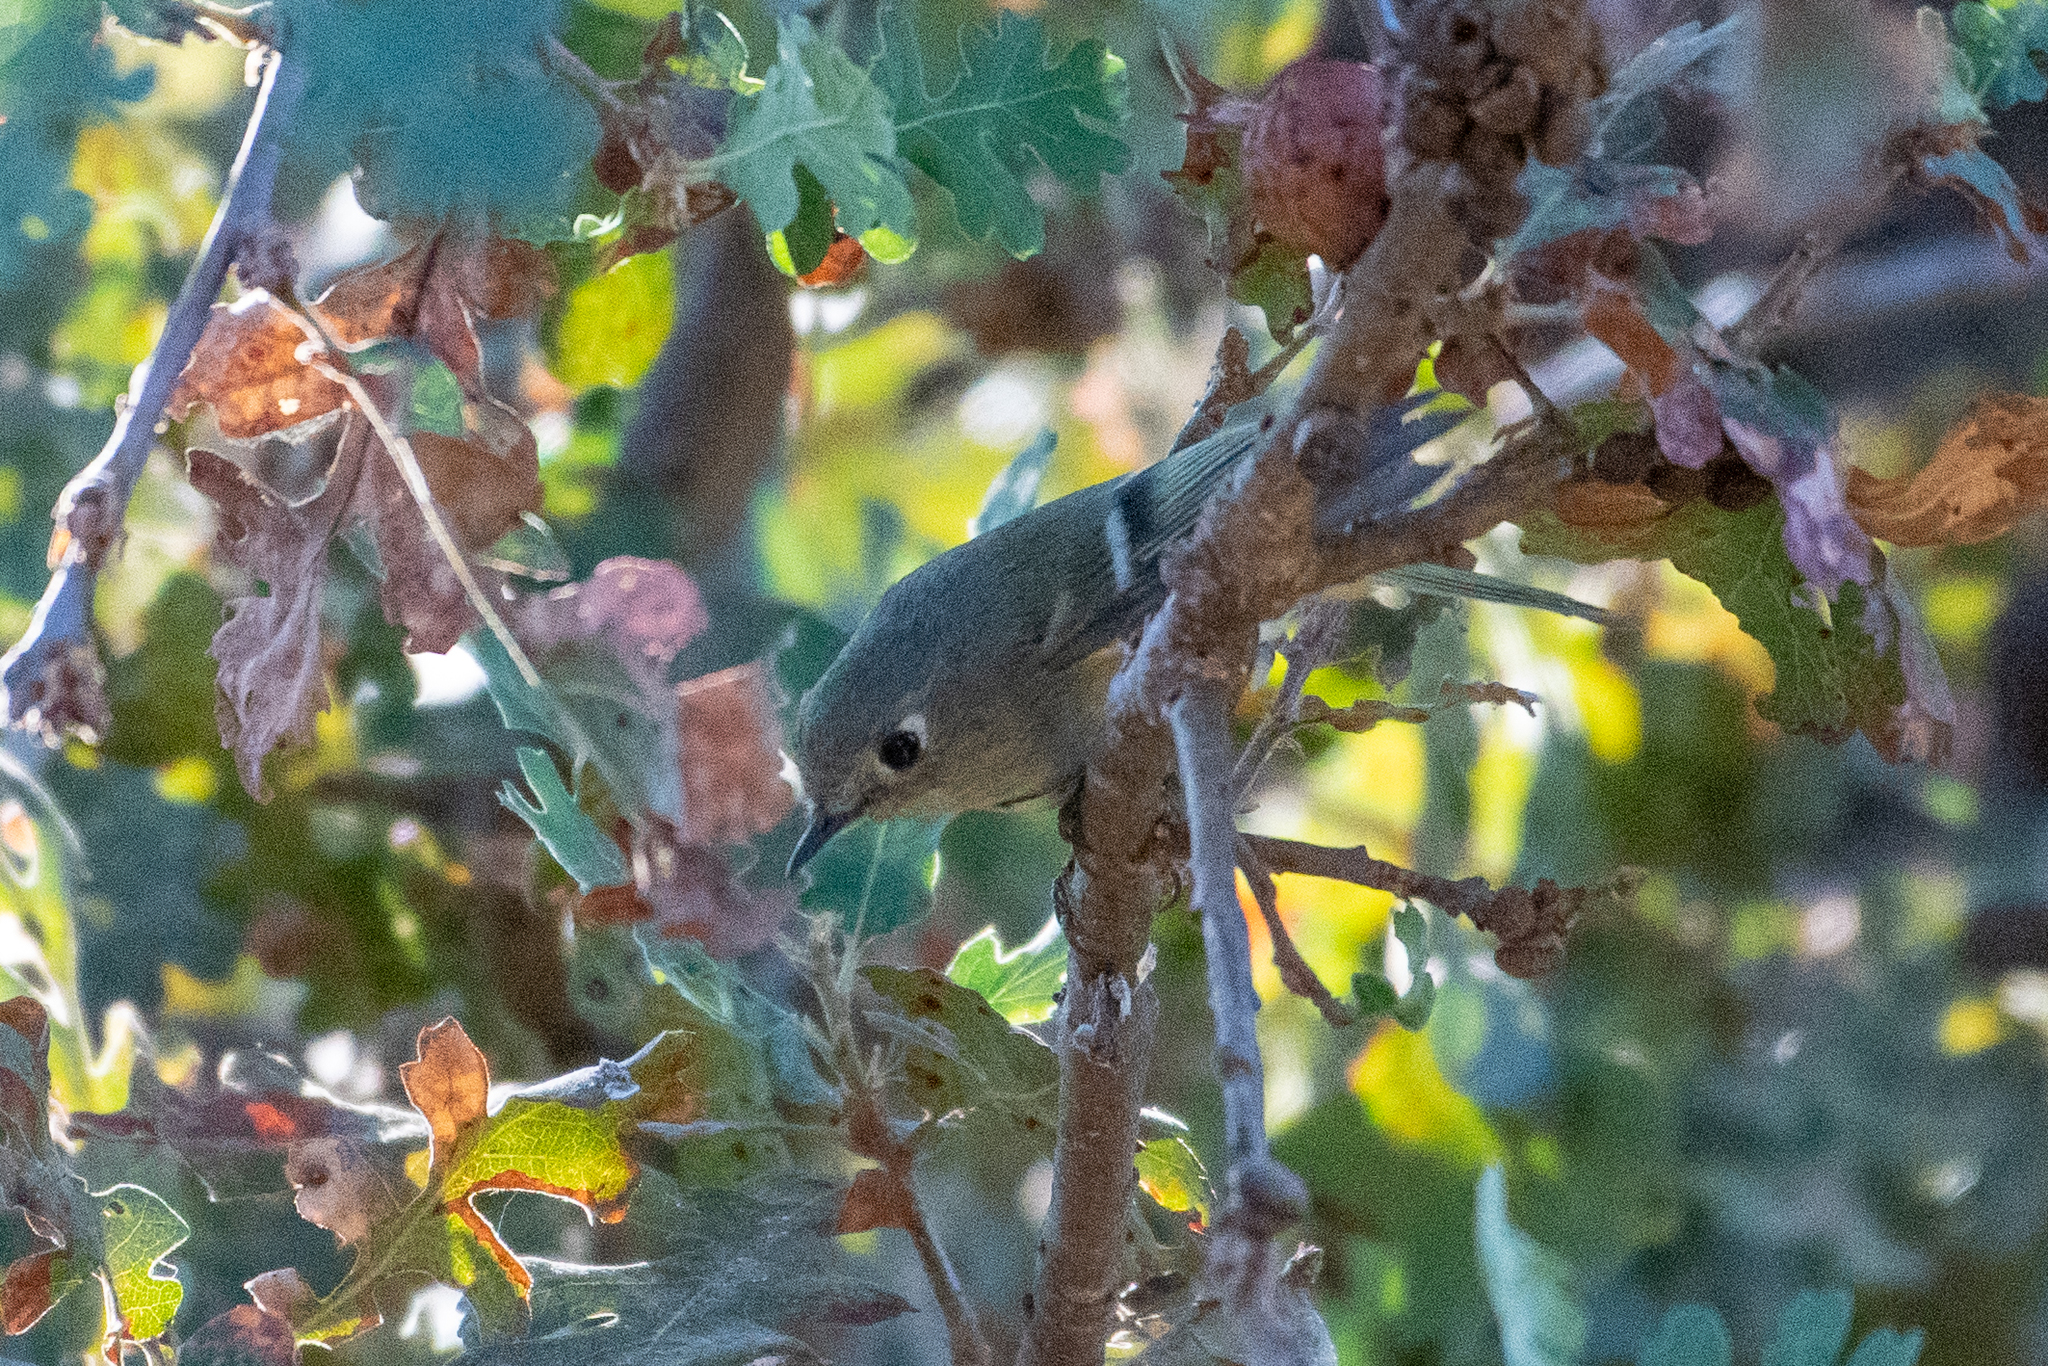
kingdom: Animalia
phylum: Chordata
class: Aves
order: Passeriformes
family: Regulidae
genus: Regulus
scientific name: Regulus calendula
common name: Ruby-crowned kinglet
